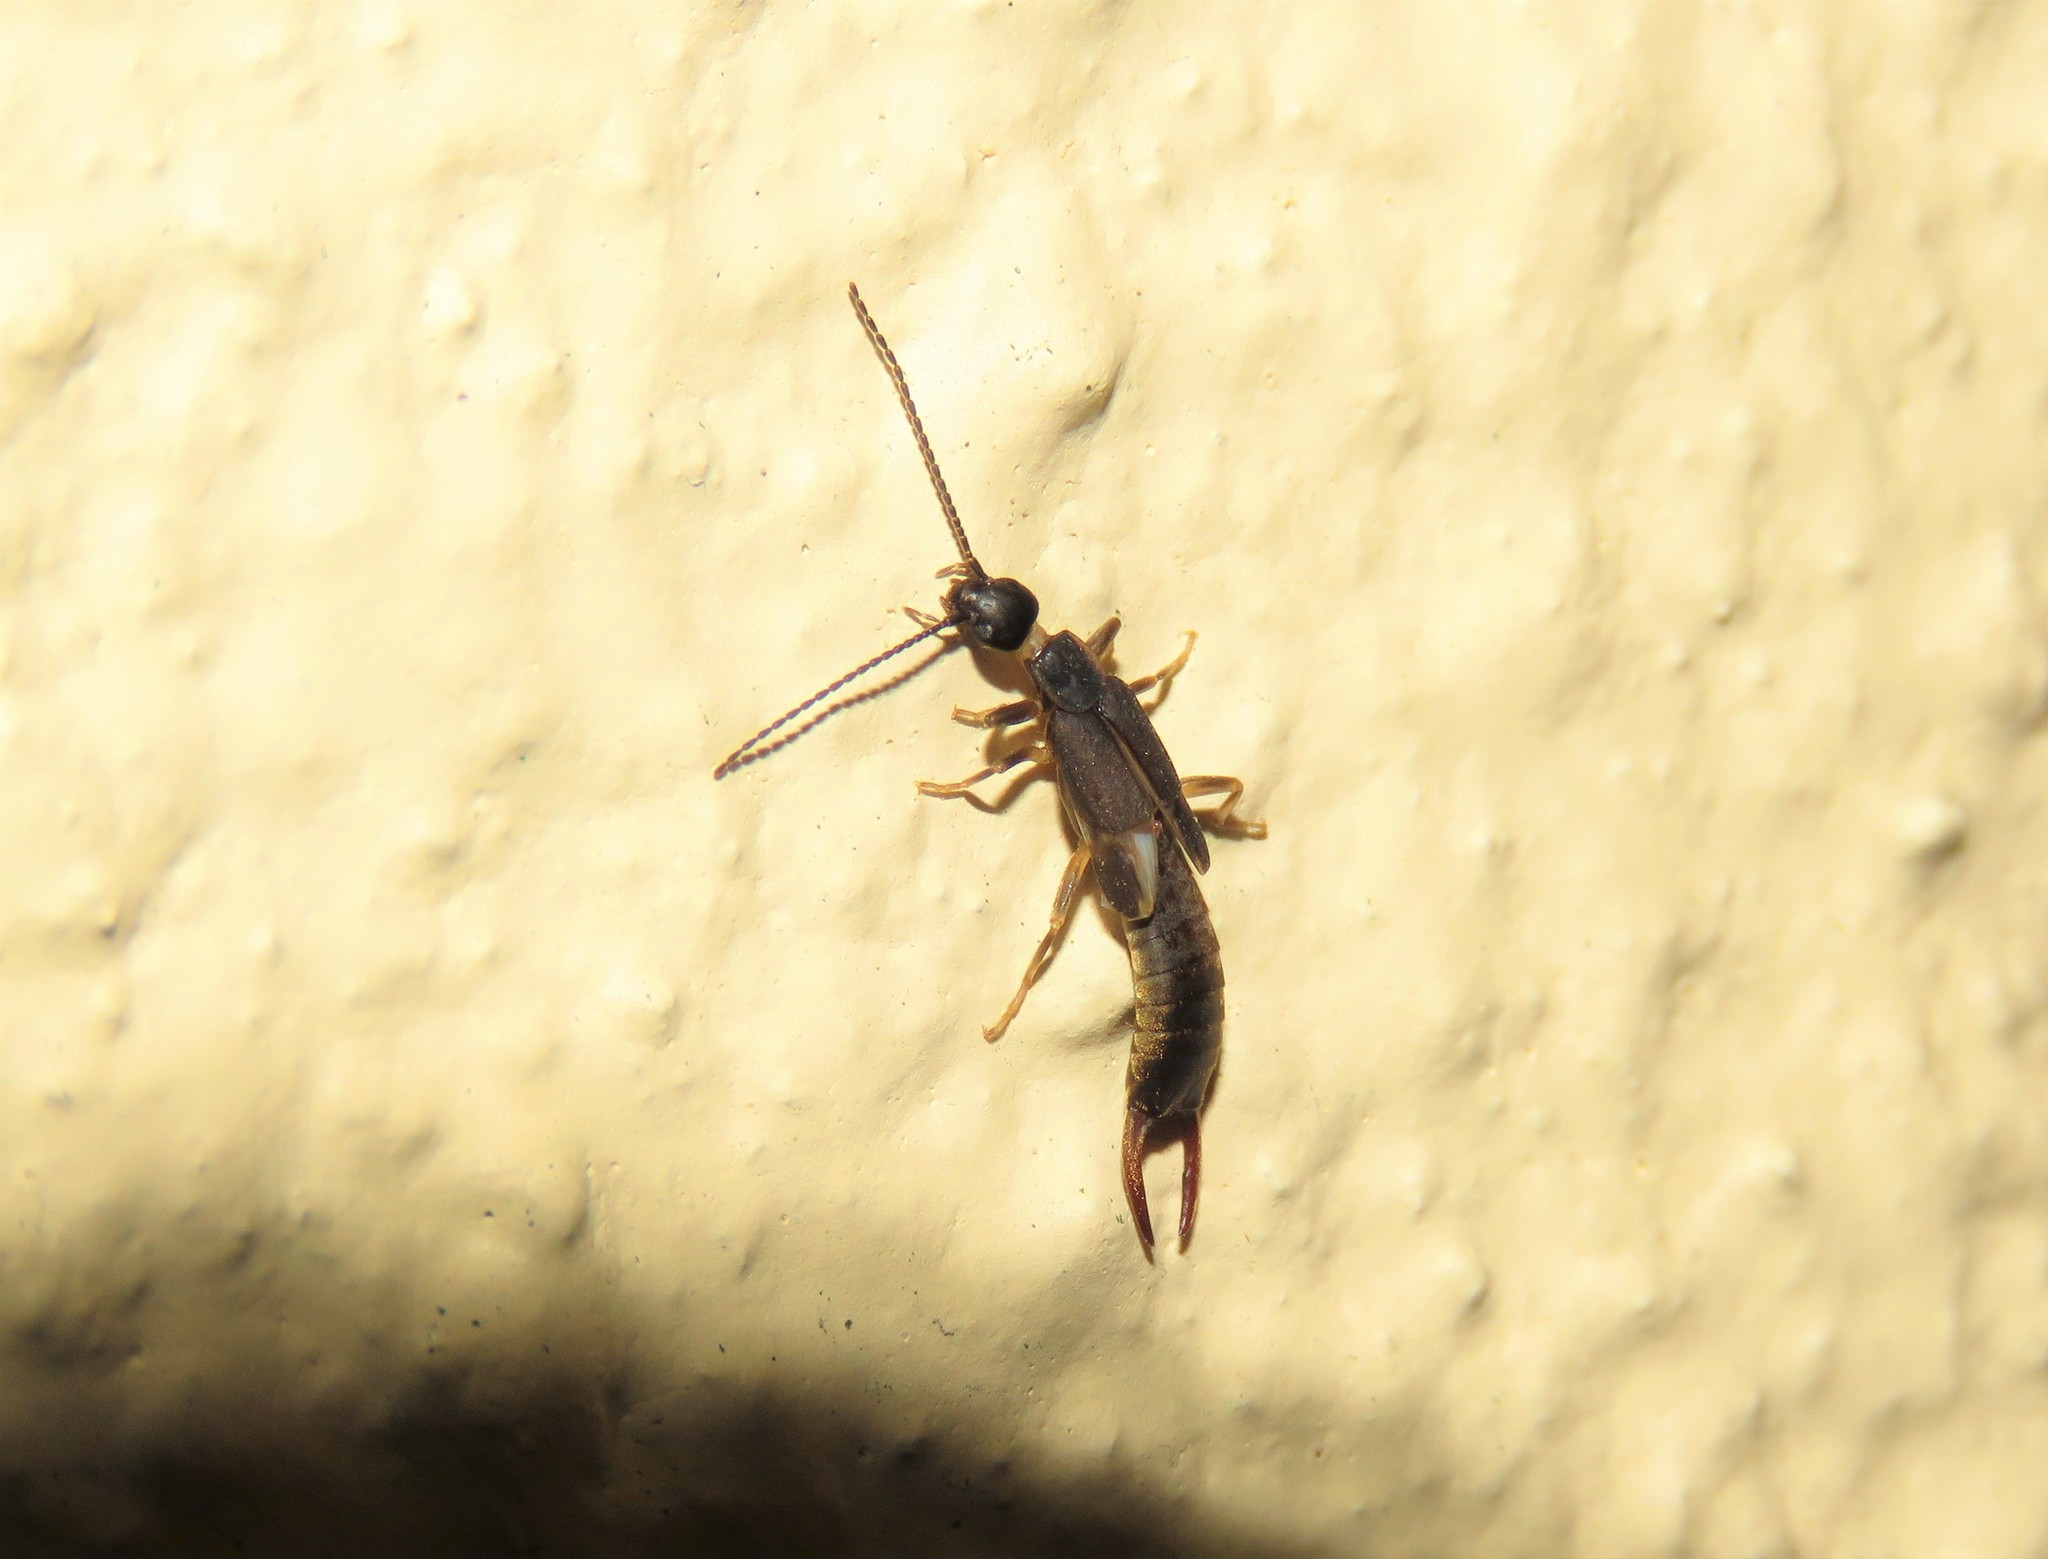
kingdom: Animalia
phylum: Arthropoda
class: Insecta
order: Dermaptera
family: Labiduridae
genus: Nala
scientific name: Nala lividipes
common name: Earwig
